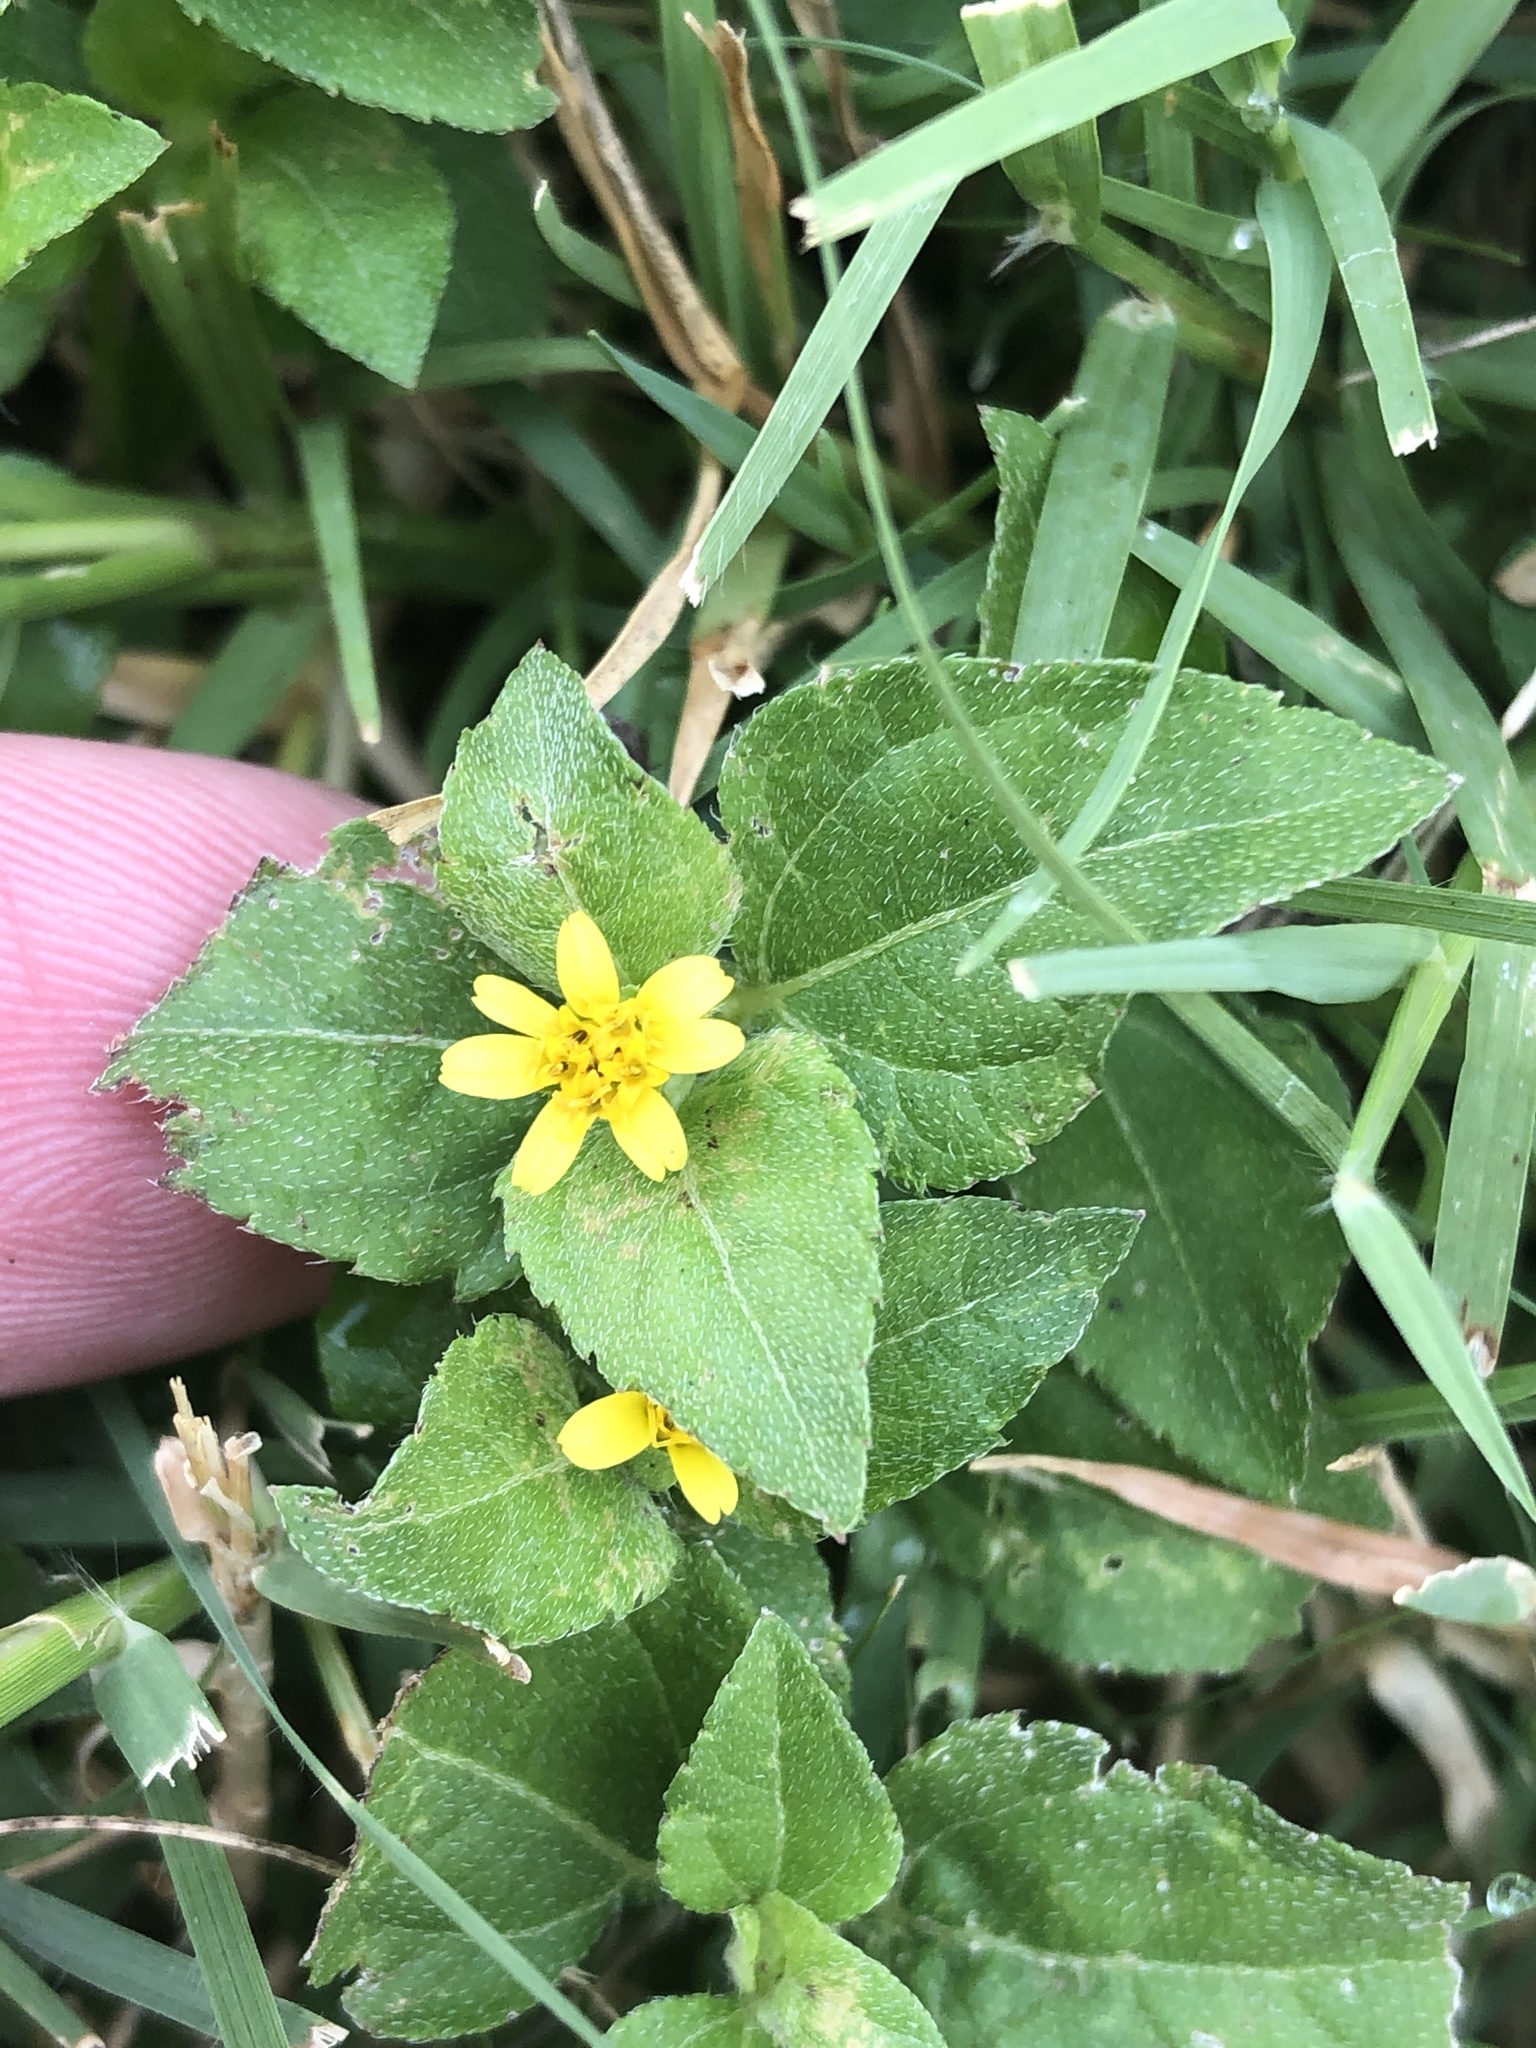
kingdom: Plantae
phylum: Tracheophyta
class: Magnoliopsida
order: Asterales
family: Asteraceae
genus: Calyptocarpus
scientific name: Calyptocarpus vialis
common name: Straggler daisy
